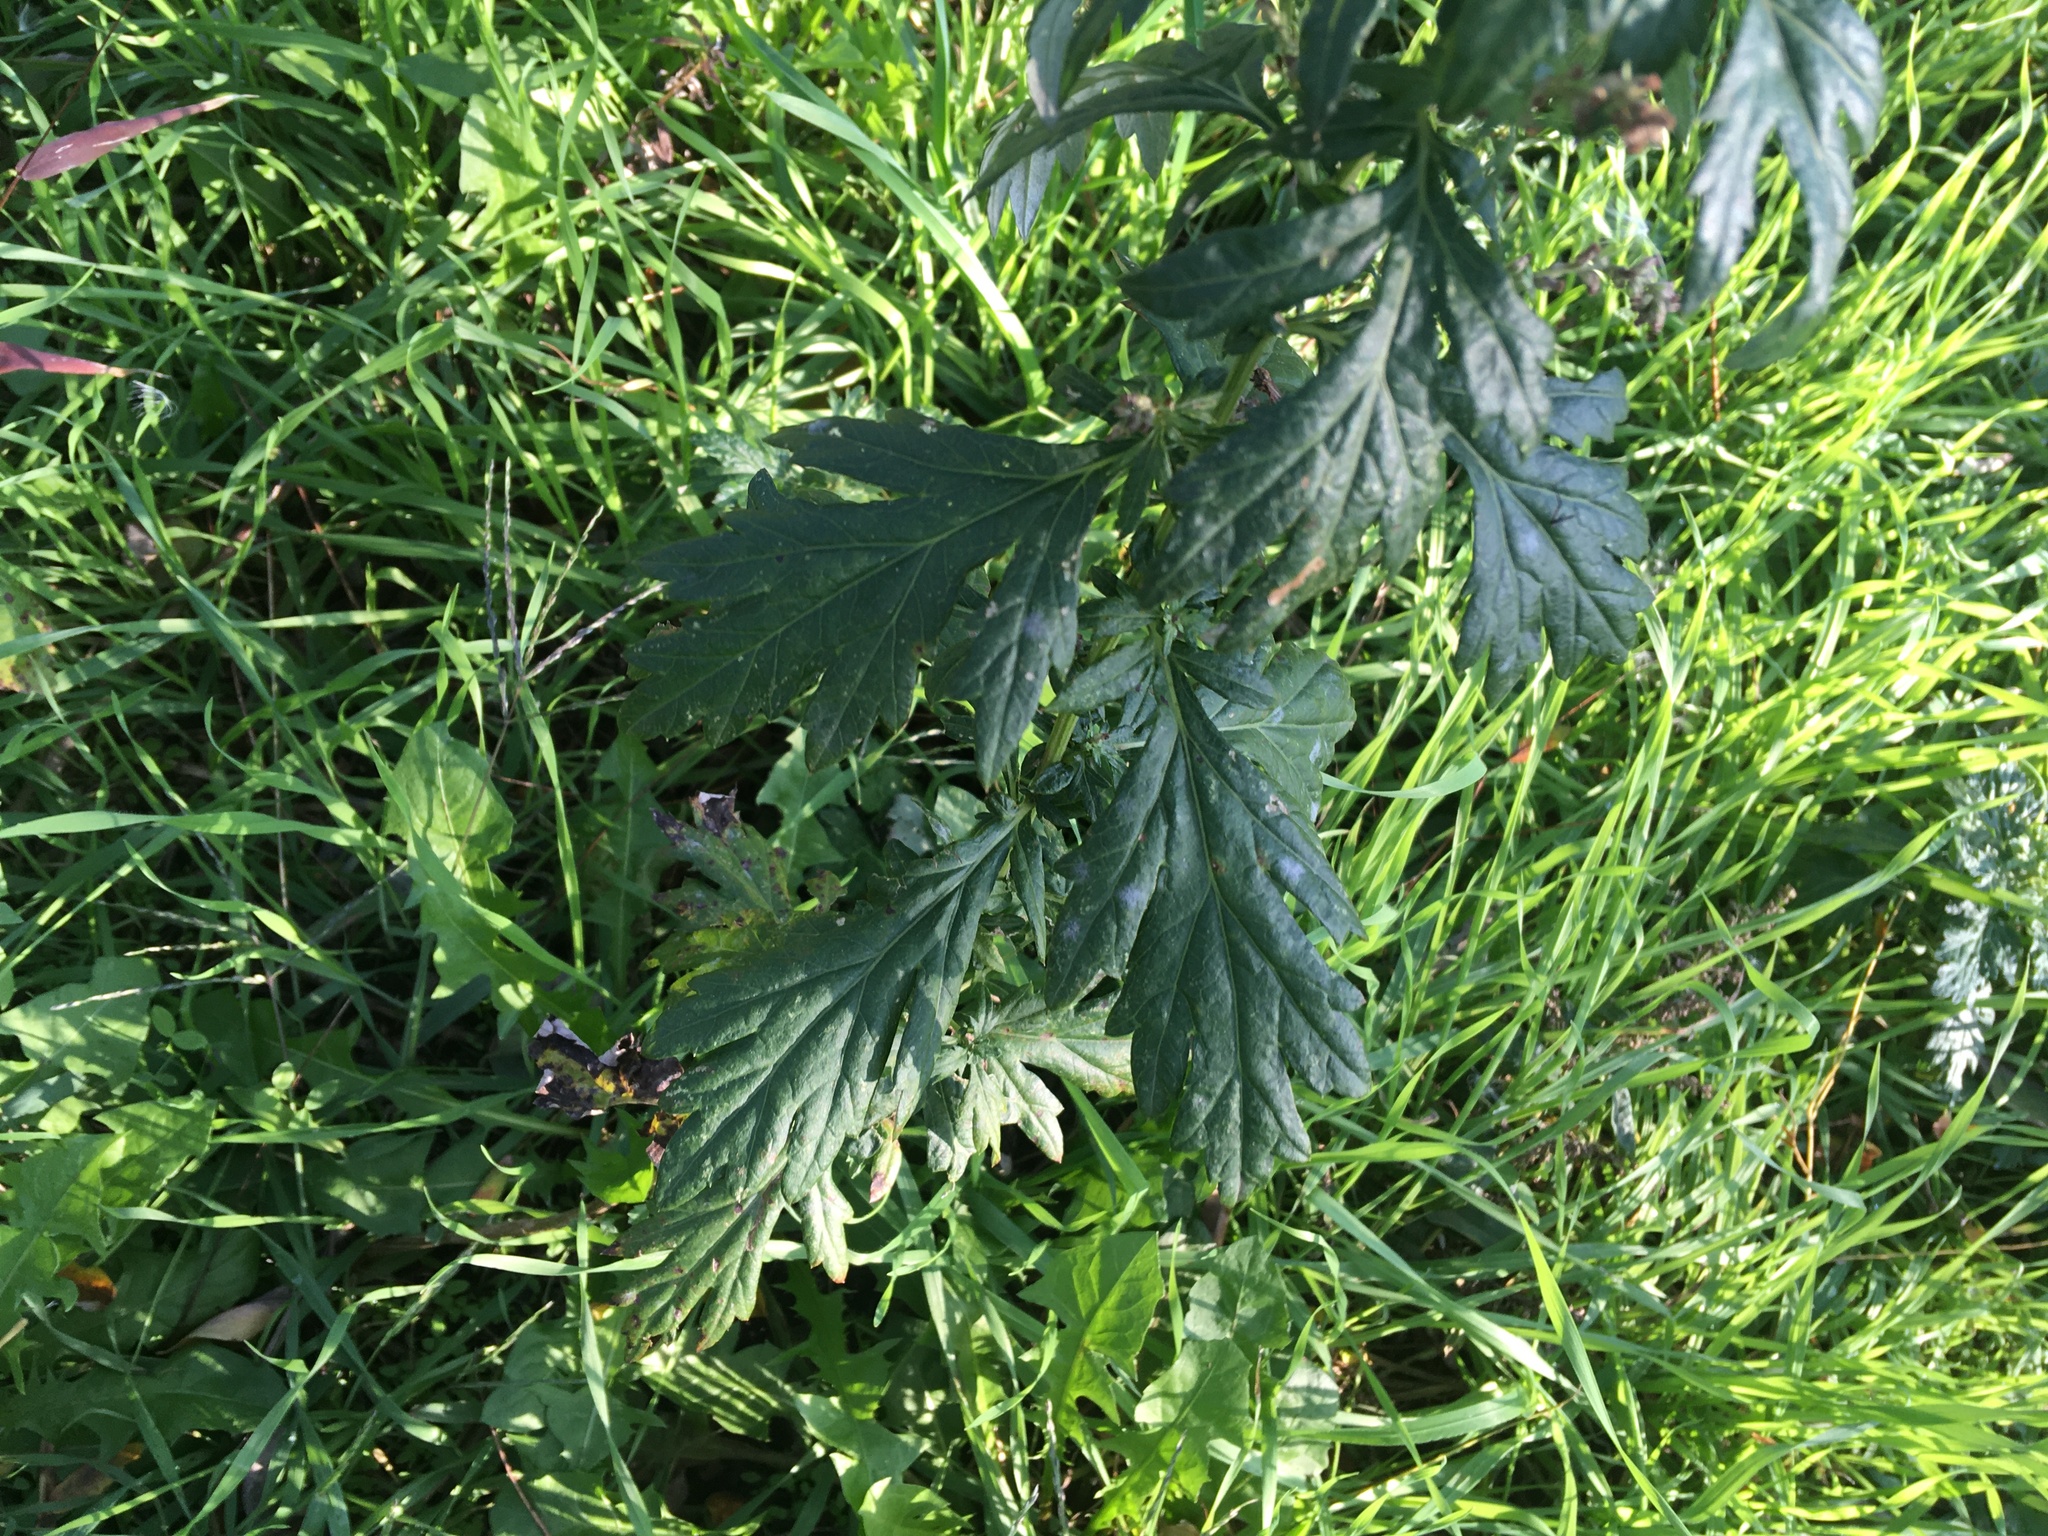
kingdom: Plantae
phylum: Tracheophyta
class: Magnoliopsida
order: Asterales
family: Asteraceae
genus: Artemisia
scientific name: Artemisia vulgaris
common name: Mugwort
